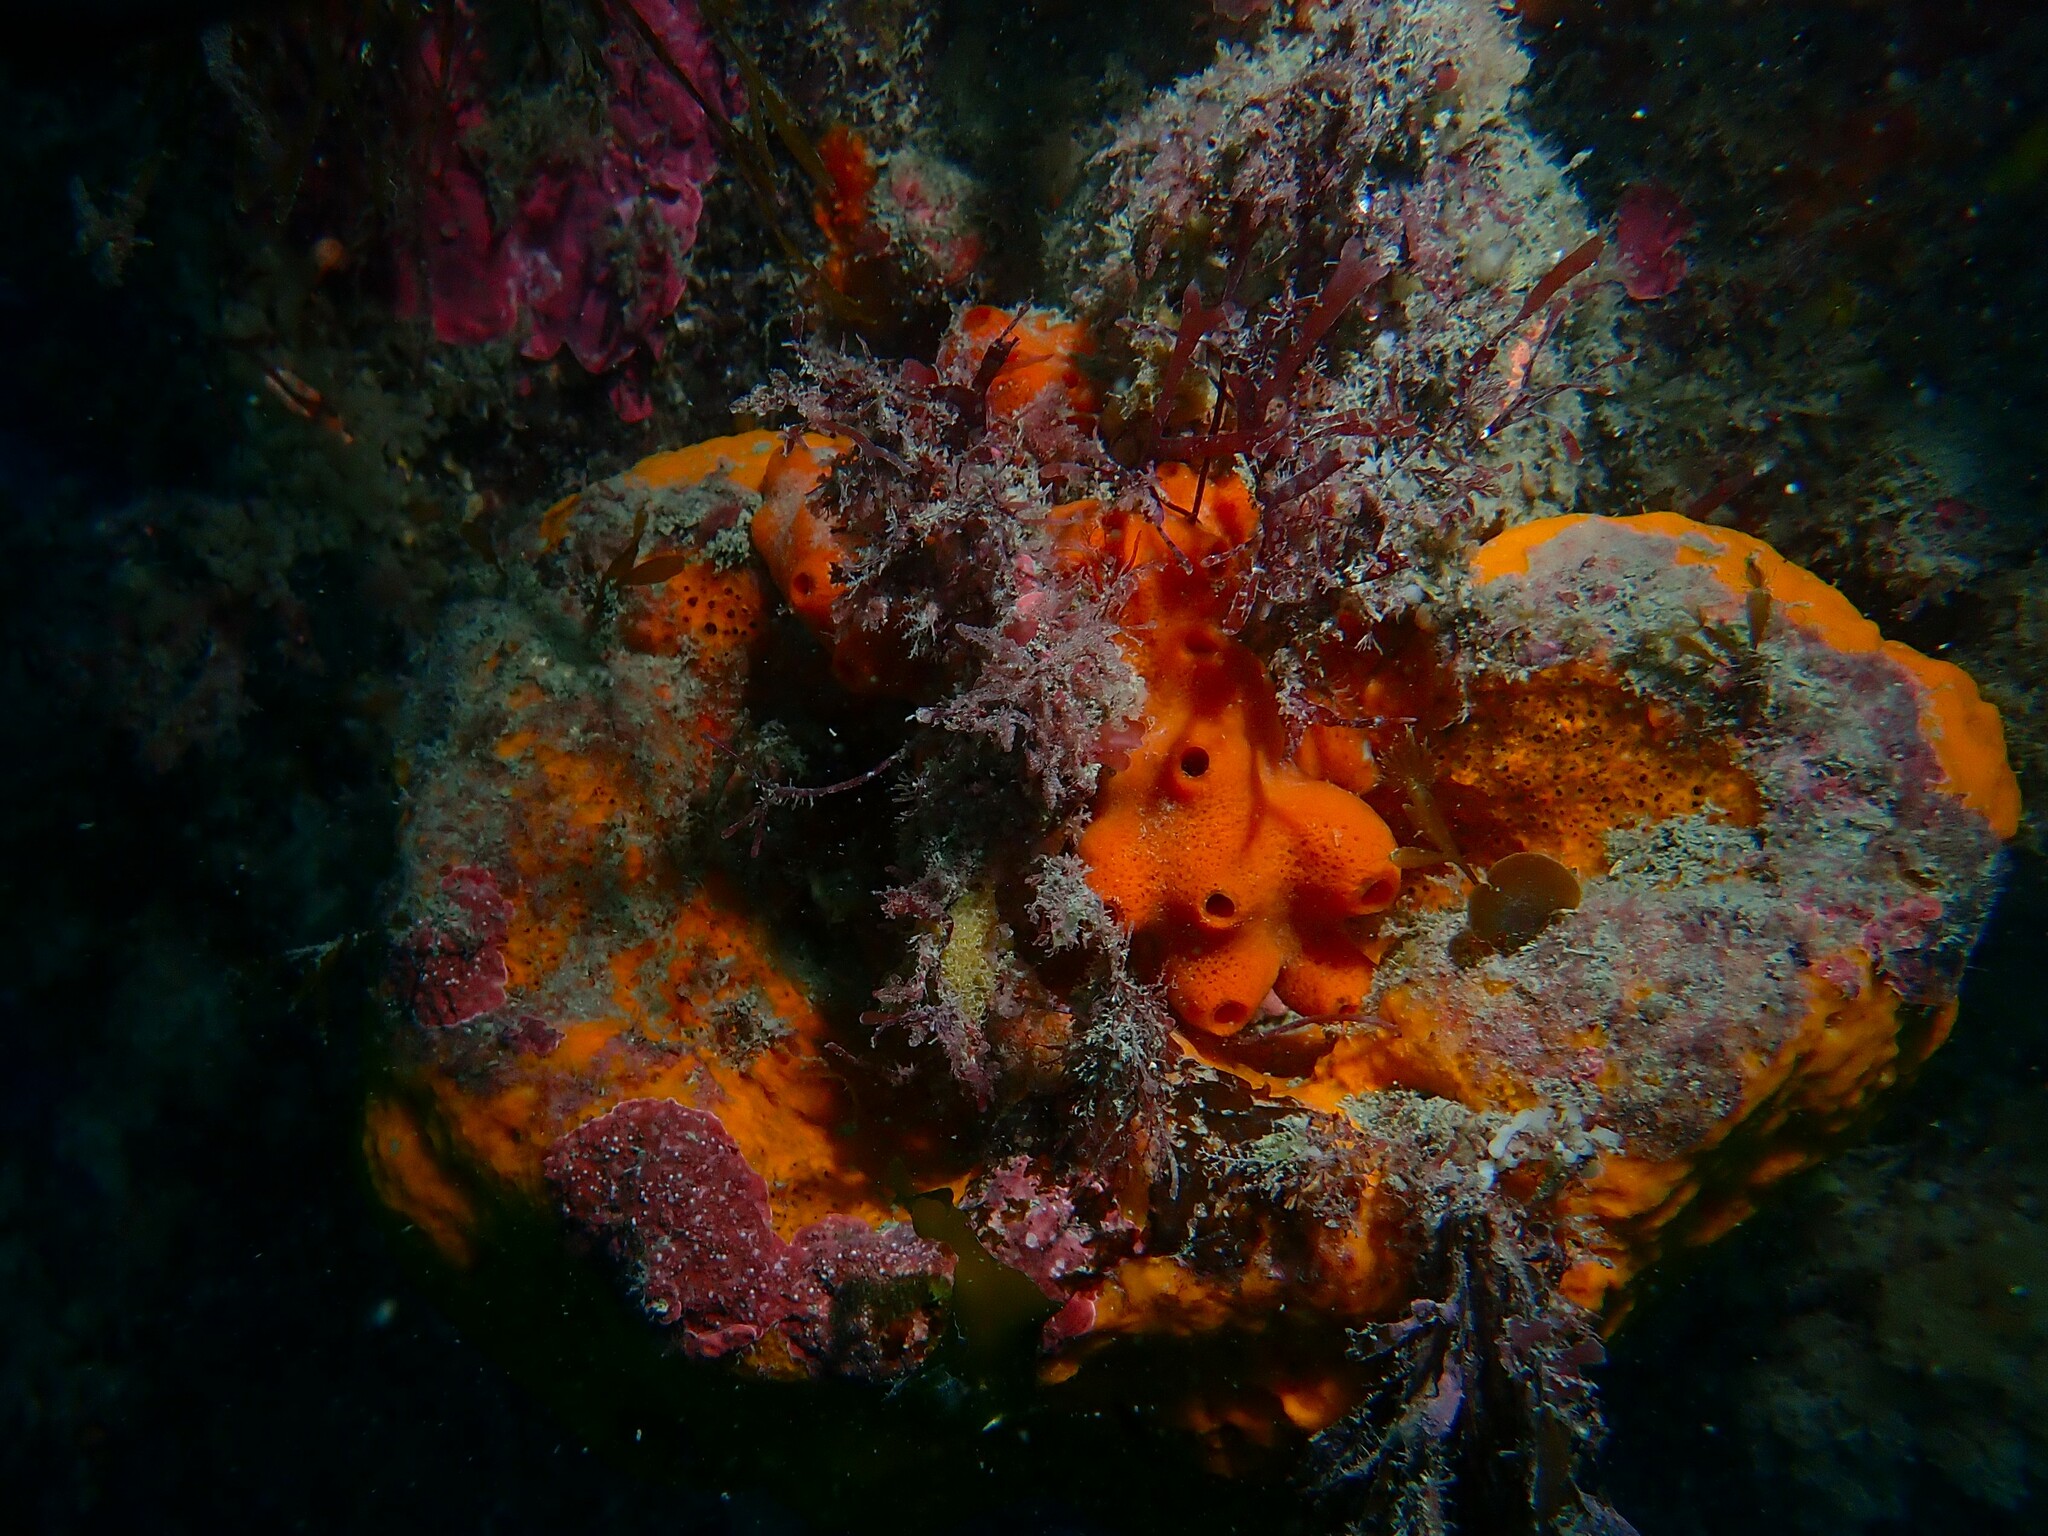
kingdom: Animalia
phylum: Porifera
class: Demospongiae
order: Poecilosclerida
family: Chondropsidae
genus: Chondropsis
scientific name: Chondropsis kirkii
